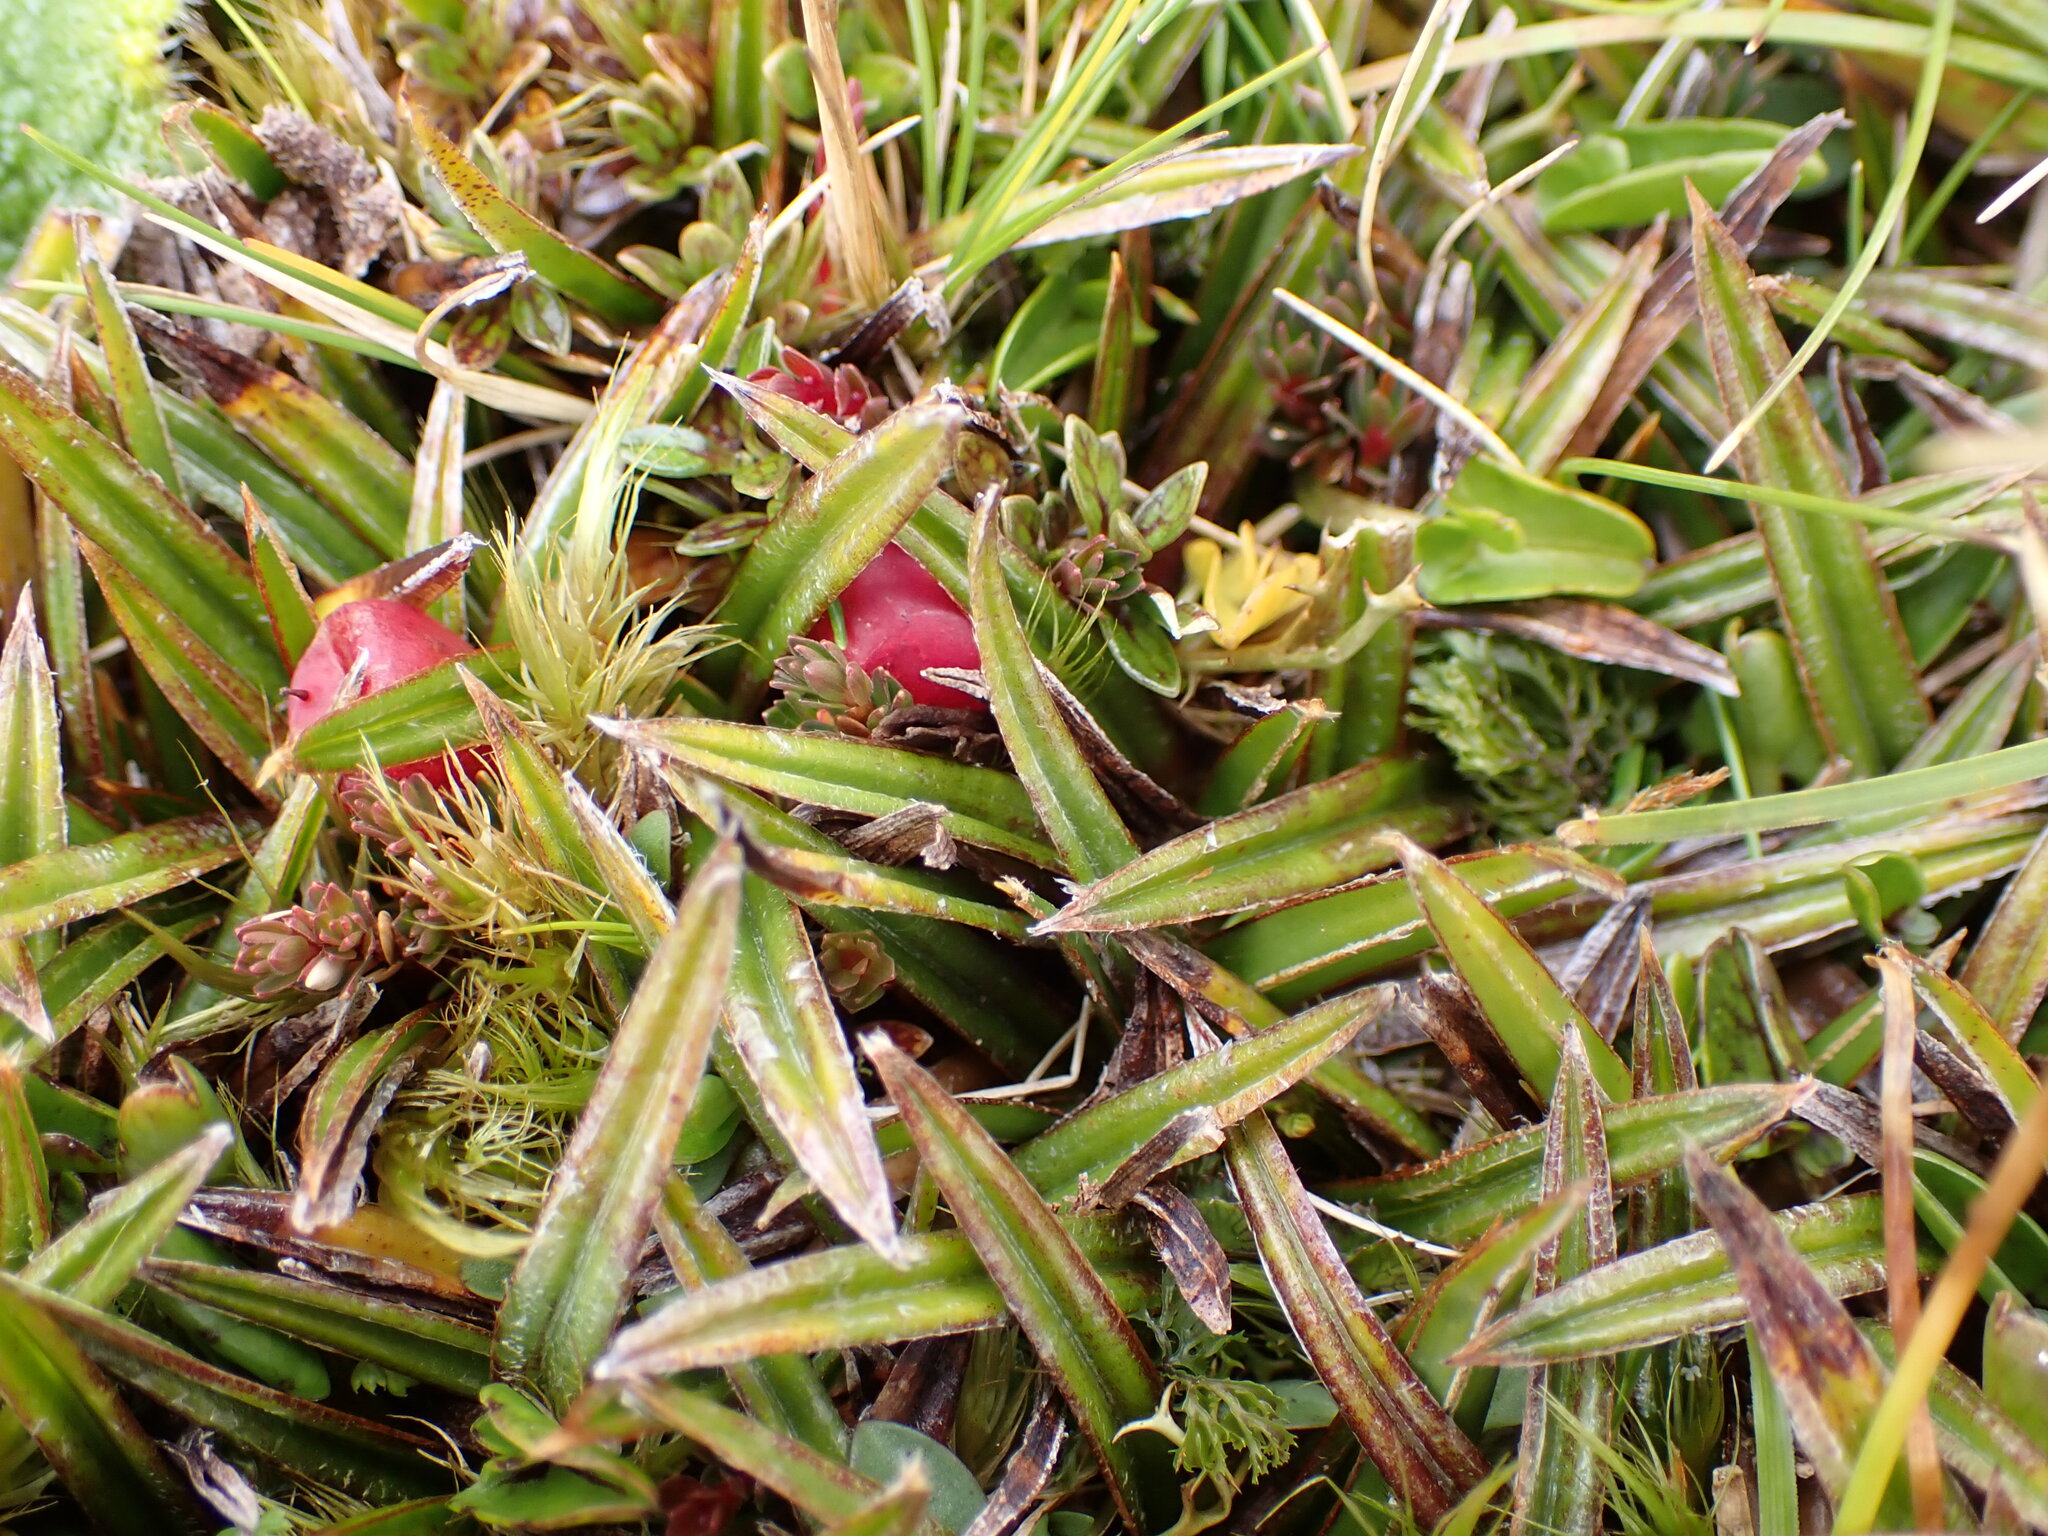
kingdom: Plantae
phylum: Tracheophyta
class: Liliopsida
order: Asparagales
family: Asteliaceae
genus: Astelia
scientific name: Astelia linearis
